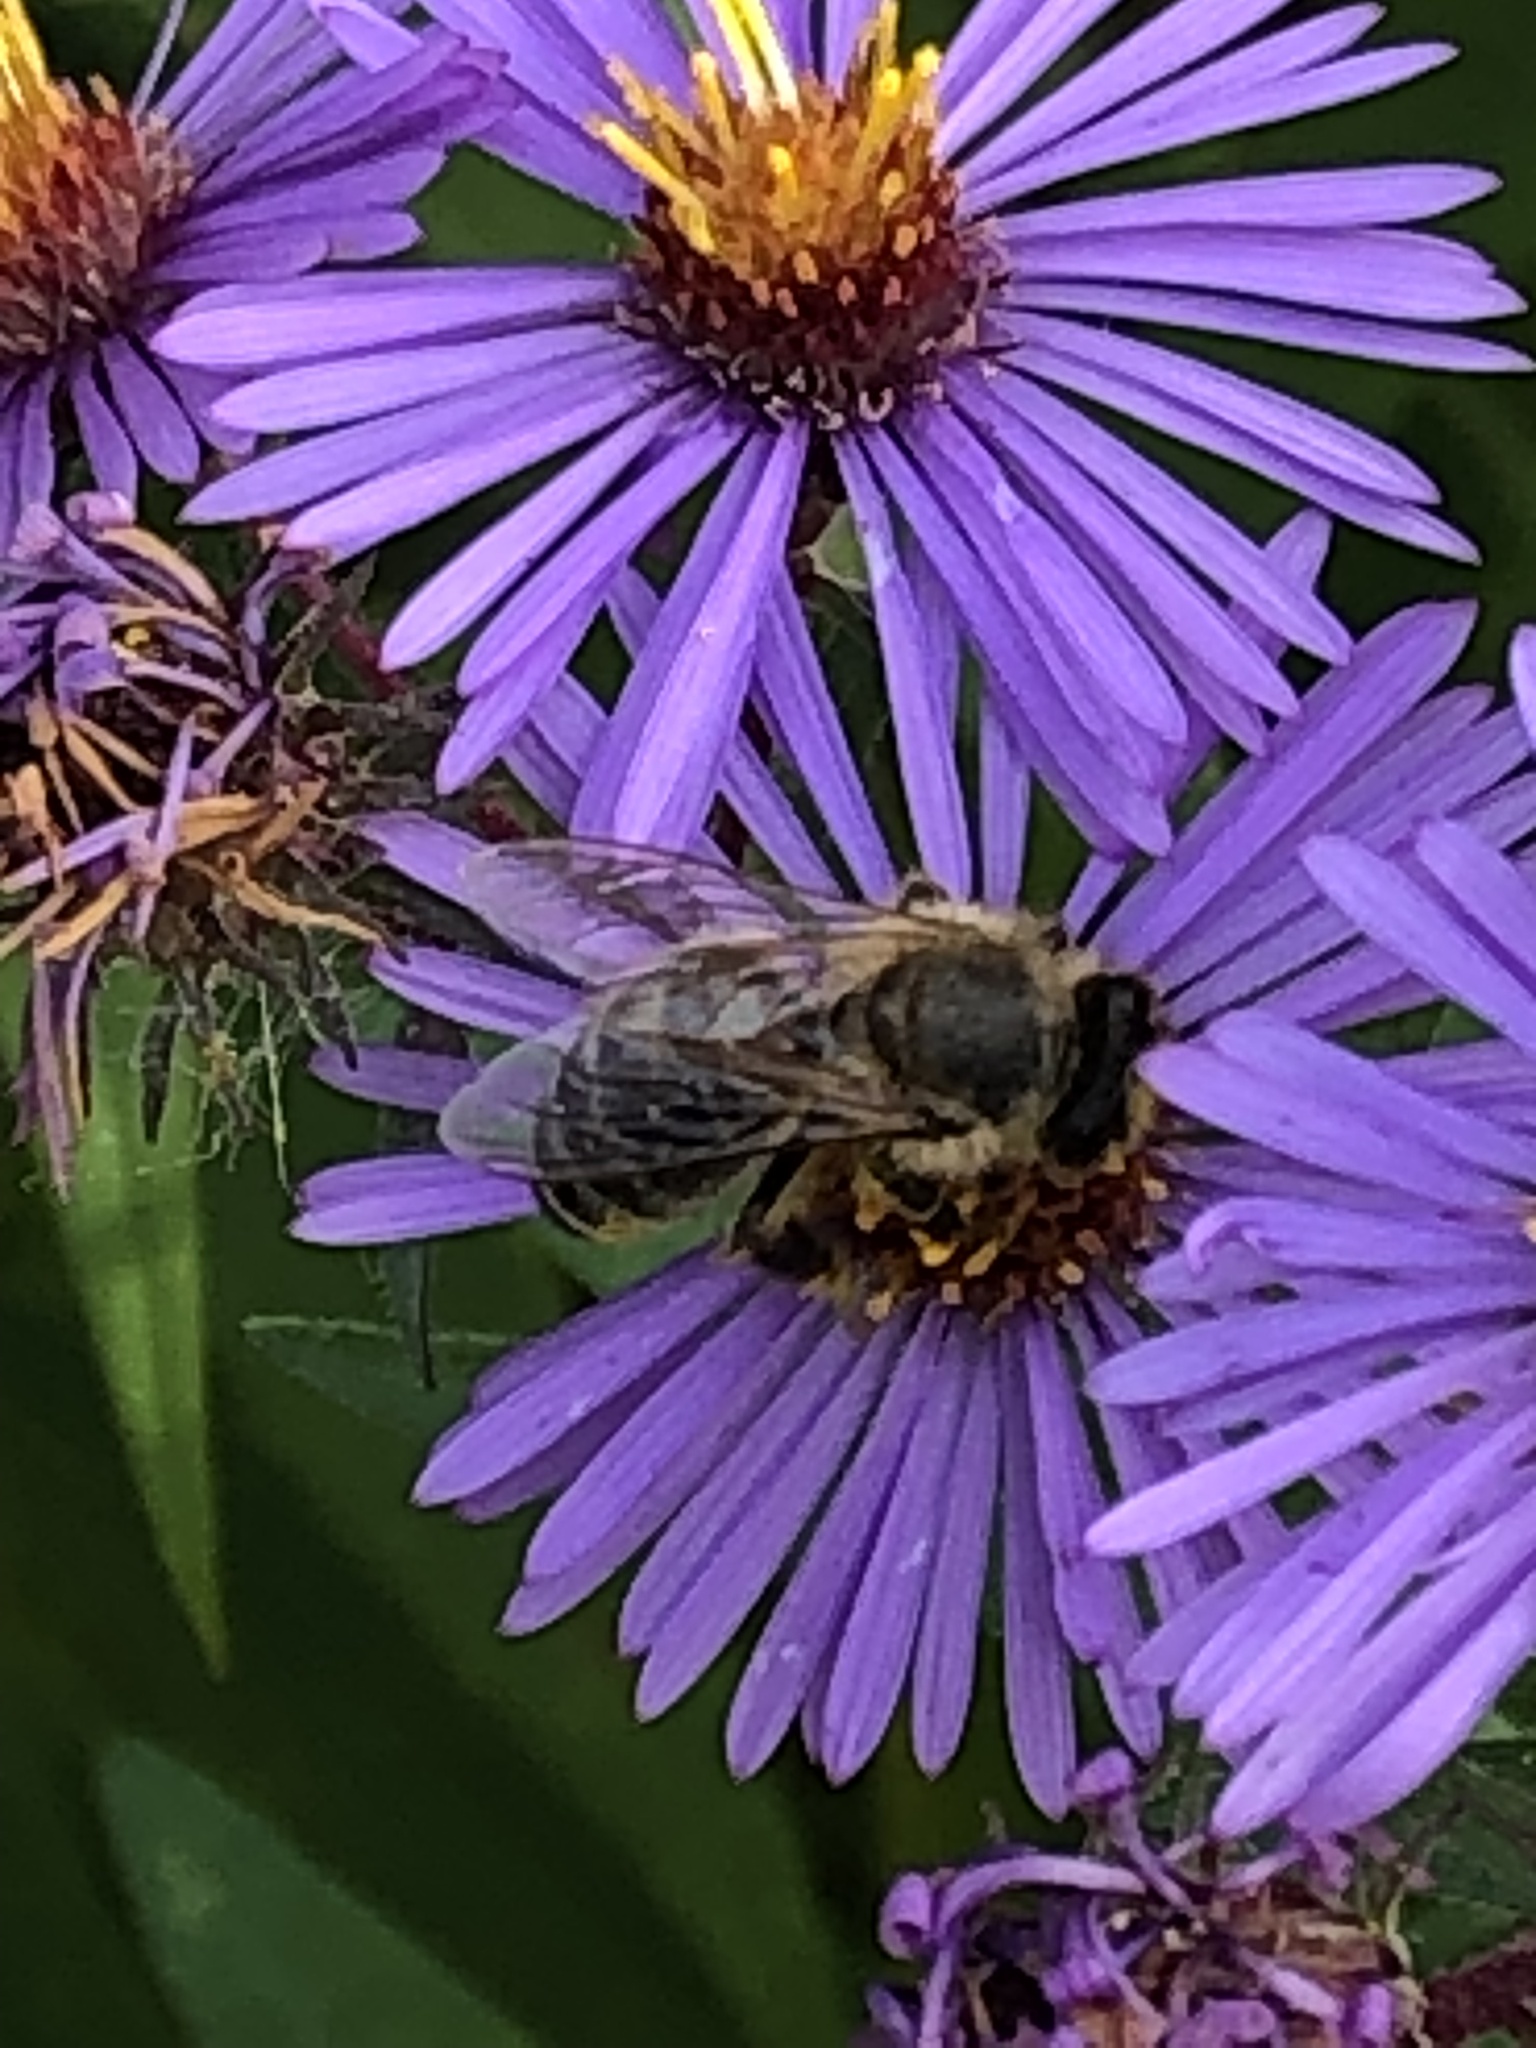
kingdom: Animalia
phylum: Arthropoda
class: Insecta
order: Hymenoptera
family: Apidae
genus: Apis
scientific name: Apis mellifera
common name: Honey bee
